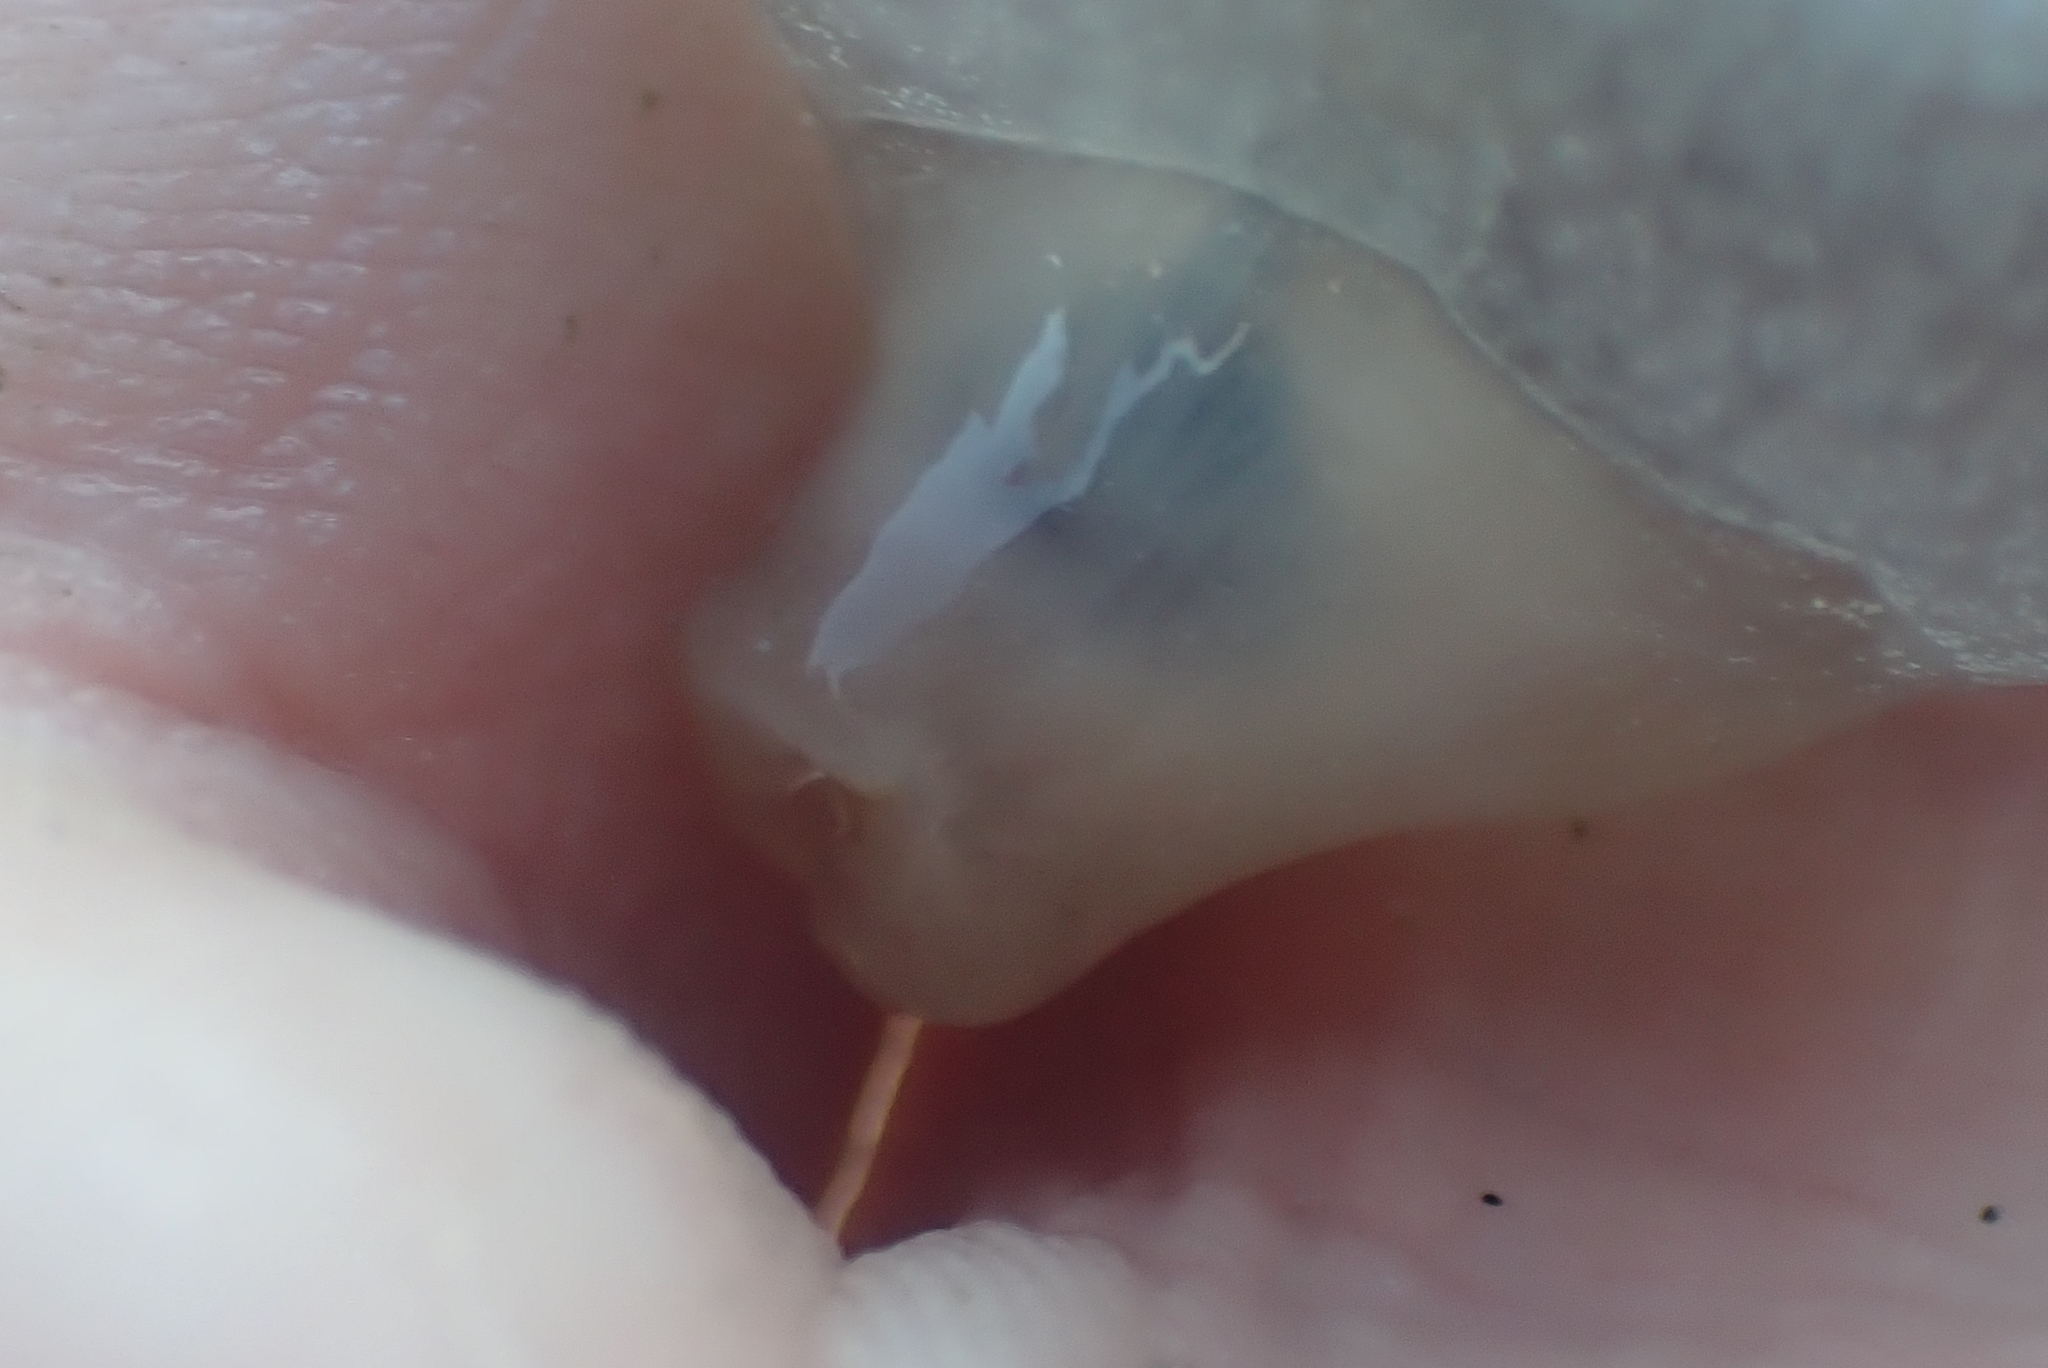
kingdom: Animalia
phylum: Mollusca
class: Gastropoda
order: Pleurobranchida
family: Pleurobranchaeidae
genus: Pleurobranchaea
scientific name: Pleurobranchaea maculata
